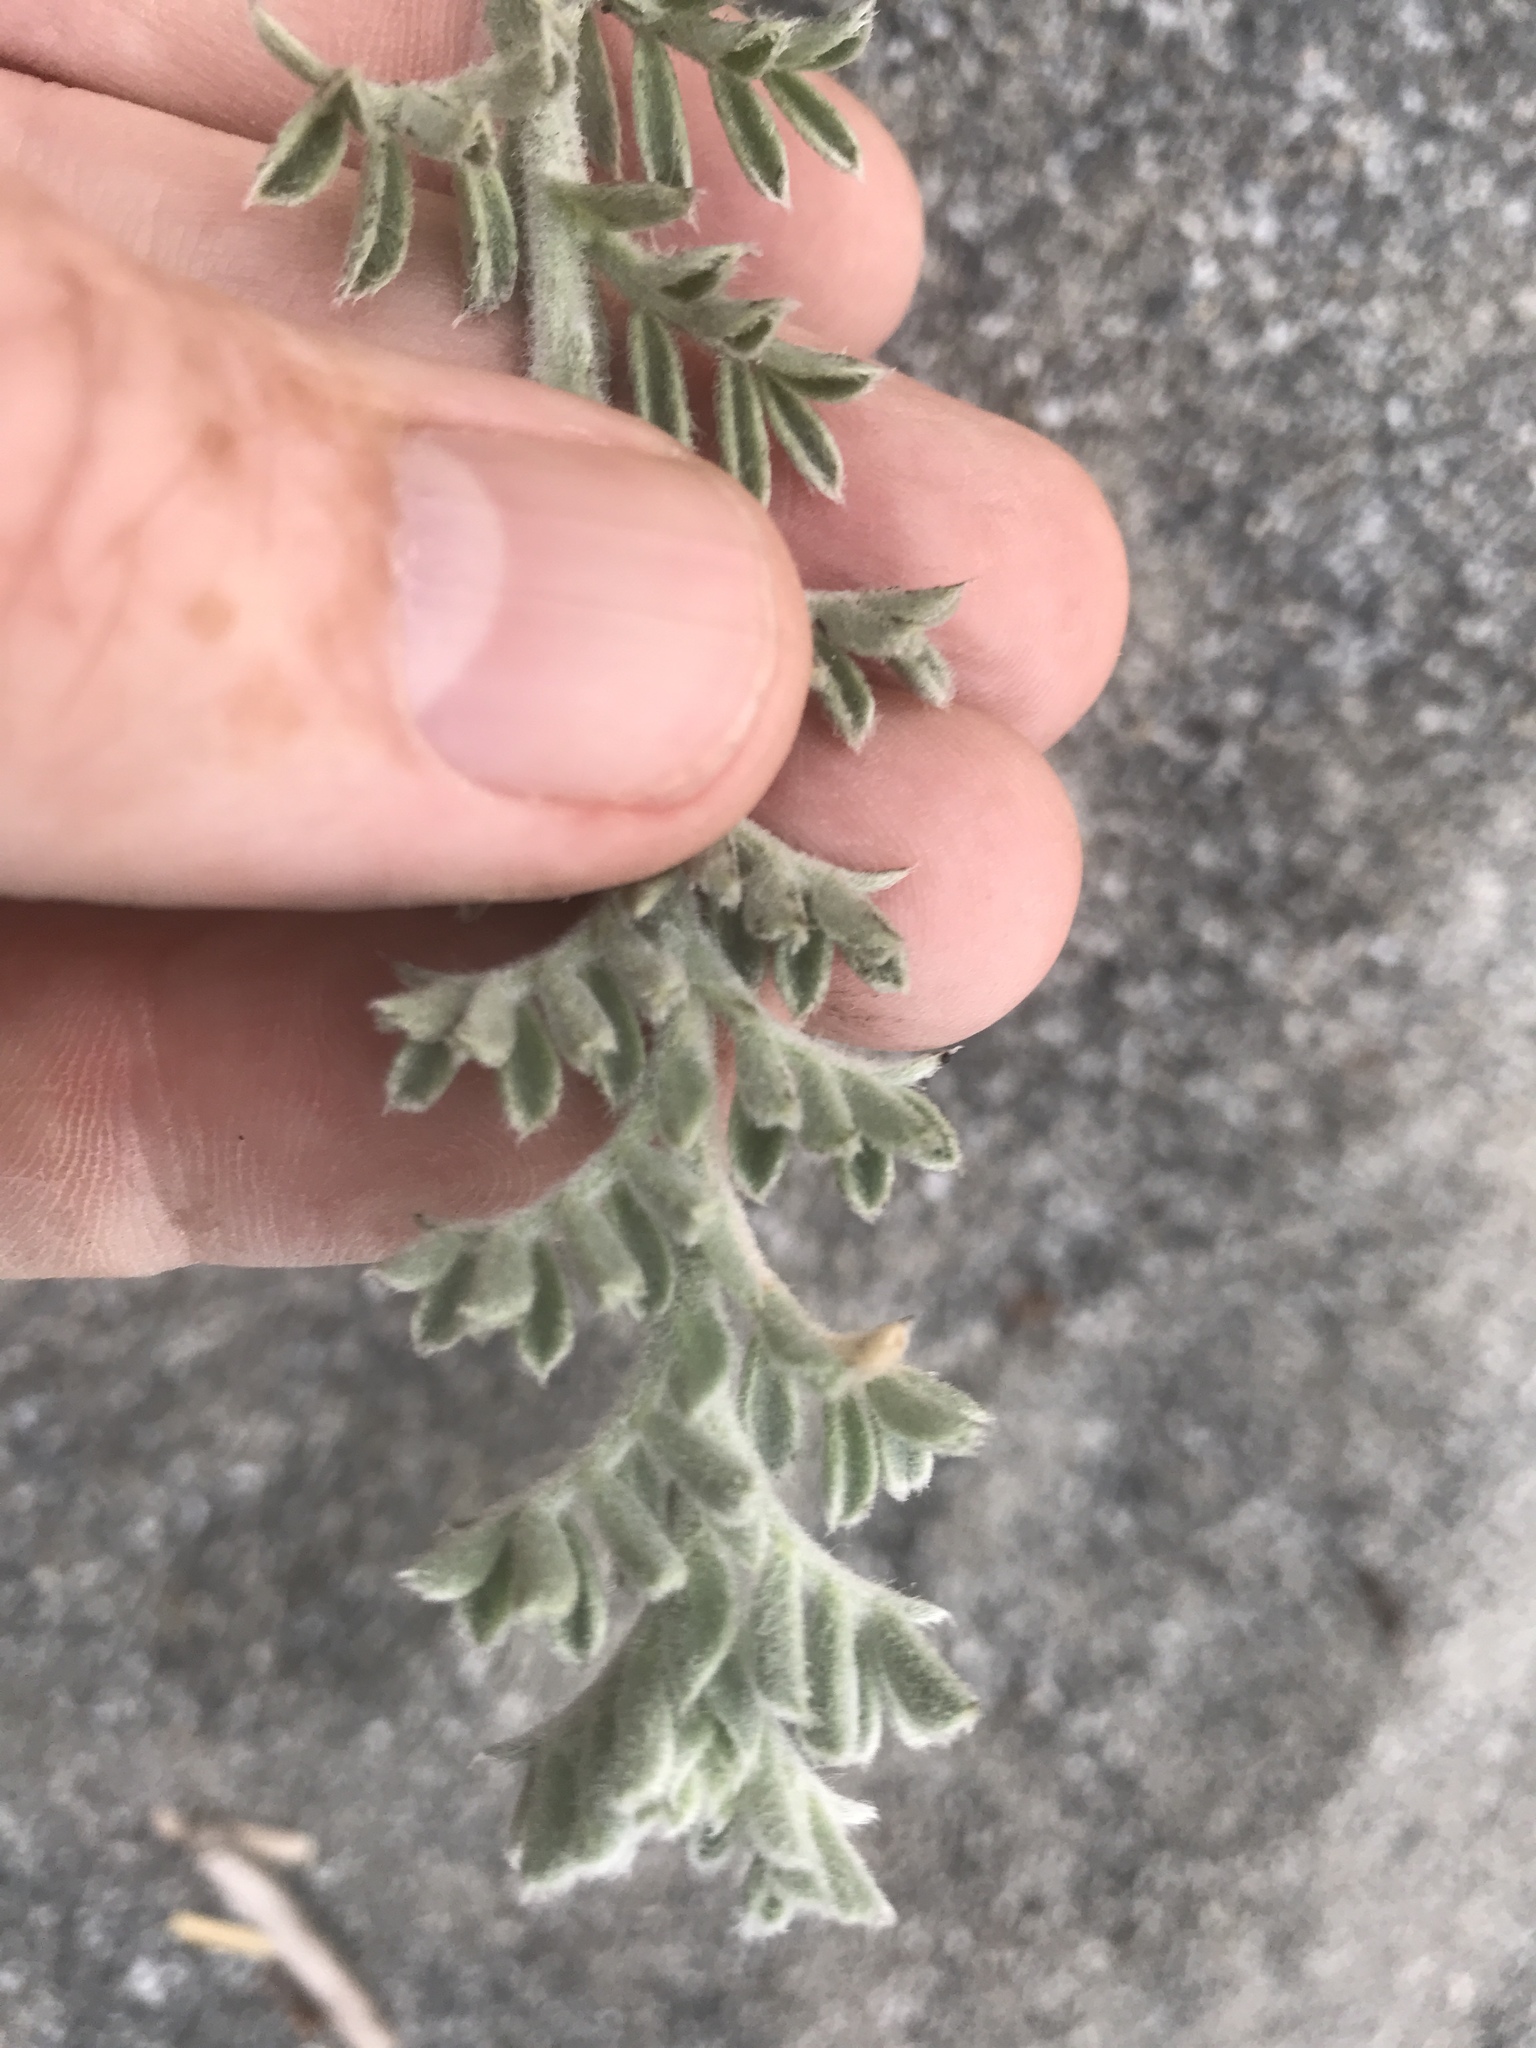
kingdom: Plantae
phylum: Tracheophyta
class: Magnoliopsida
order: Fabales
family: Fabaceae
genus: Lathyrus
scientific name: Lathyrus littoralis
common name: Dune sweet pea
